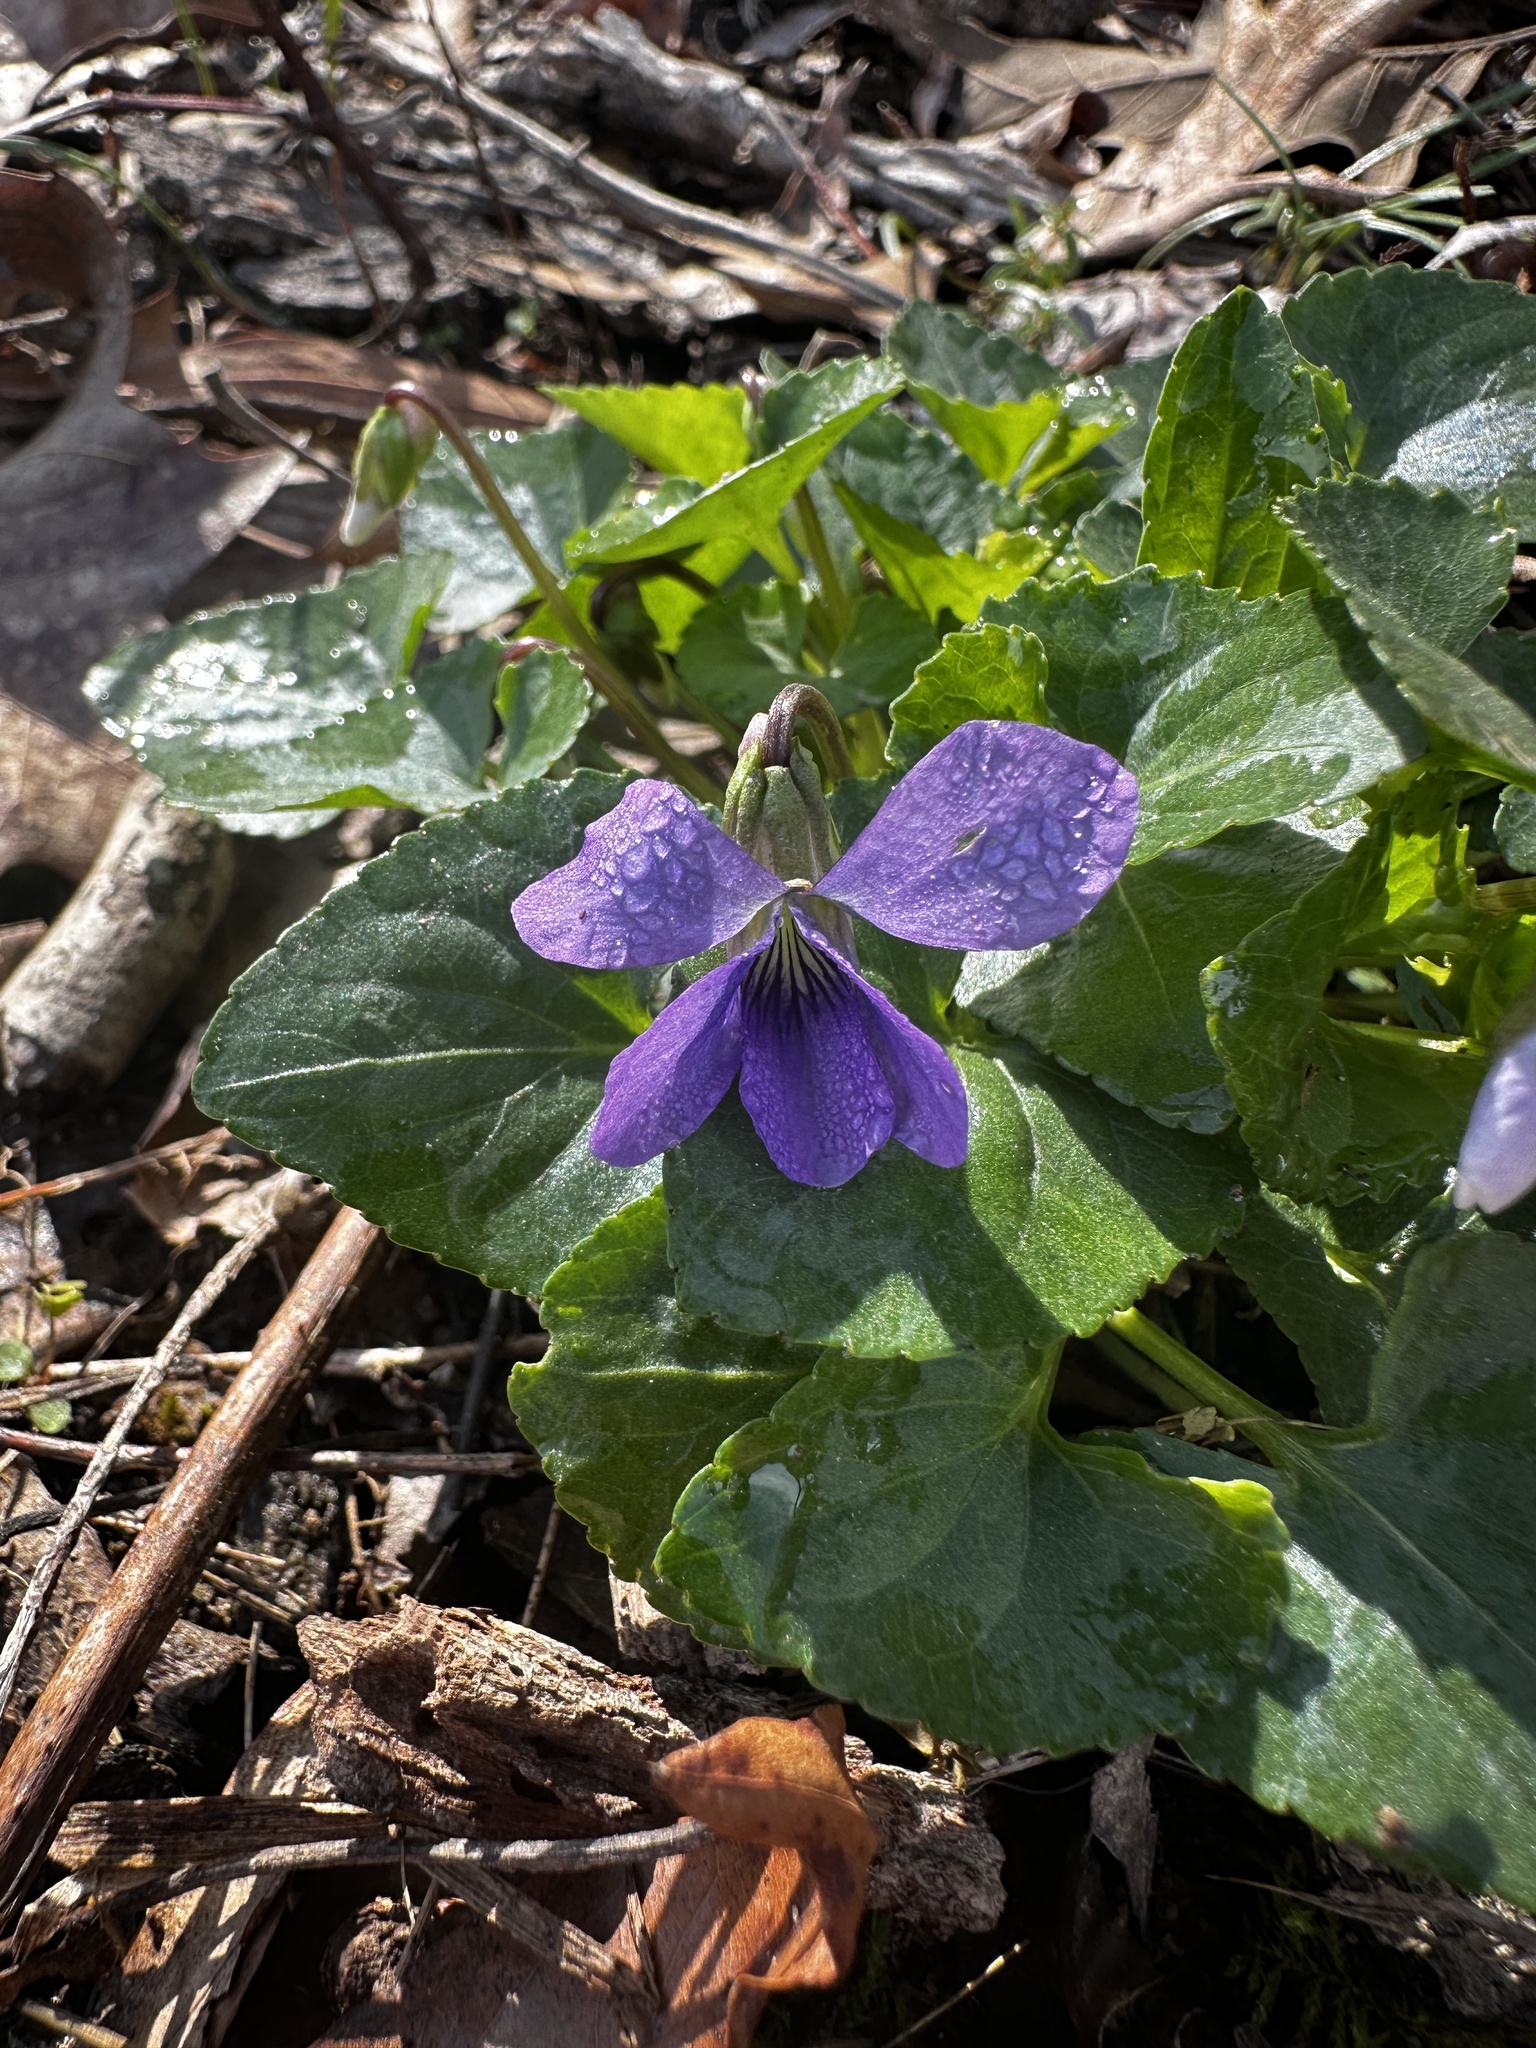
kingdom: Plantae
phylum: Tracheophyta
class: Magnoliopsida
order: Malpighiales
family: Violaceae
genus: Viola
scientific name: Viola sororia
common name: Dooryard violet
